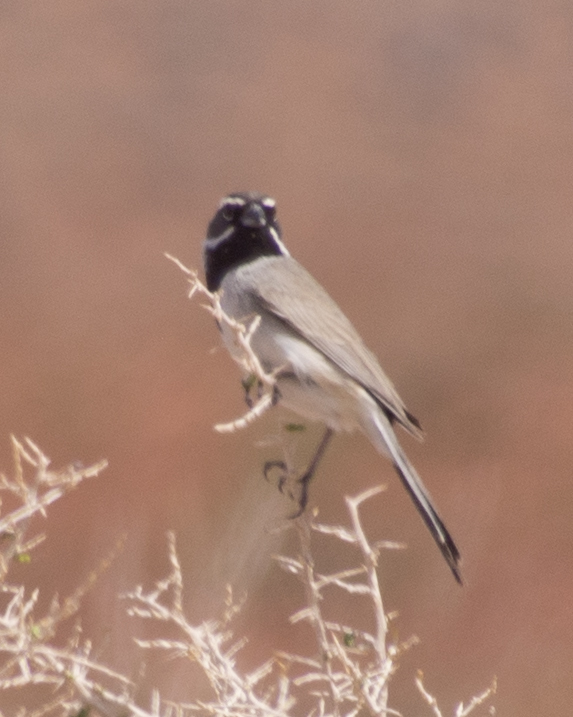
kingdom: Animalia
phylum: Chordata
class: Aves
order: Passeriformes
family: Passerellidae
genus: Amphispiza
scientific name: Amphispiza bilineata
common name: Black-throated sparrow
